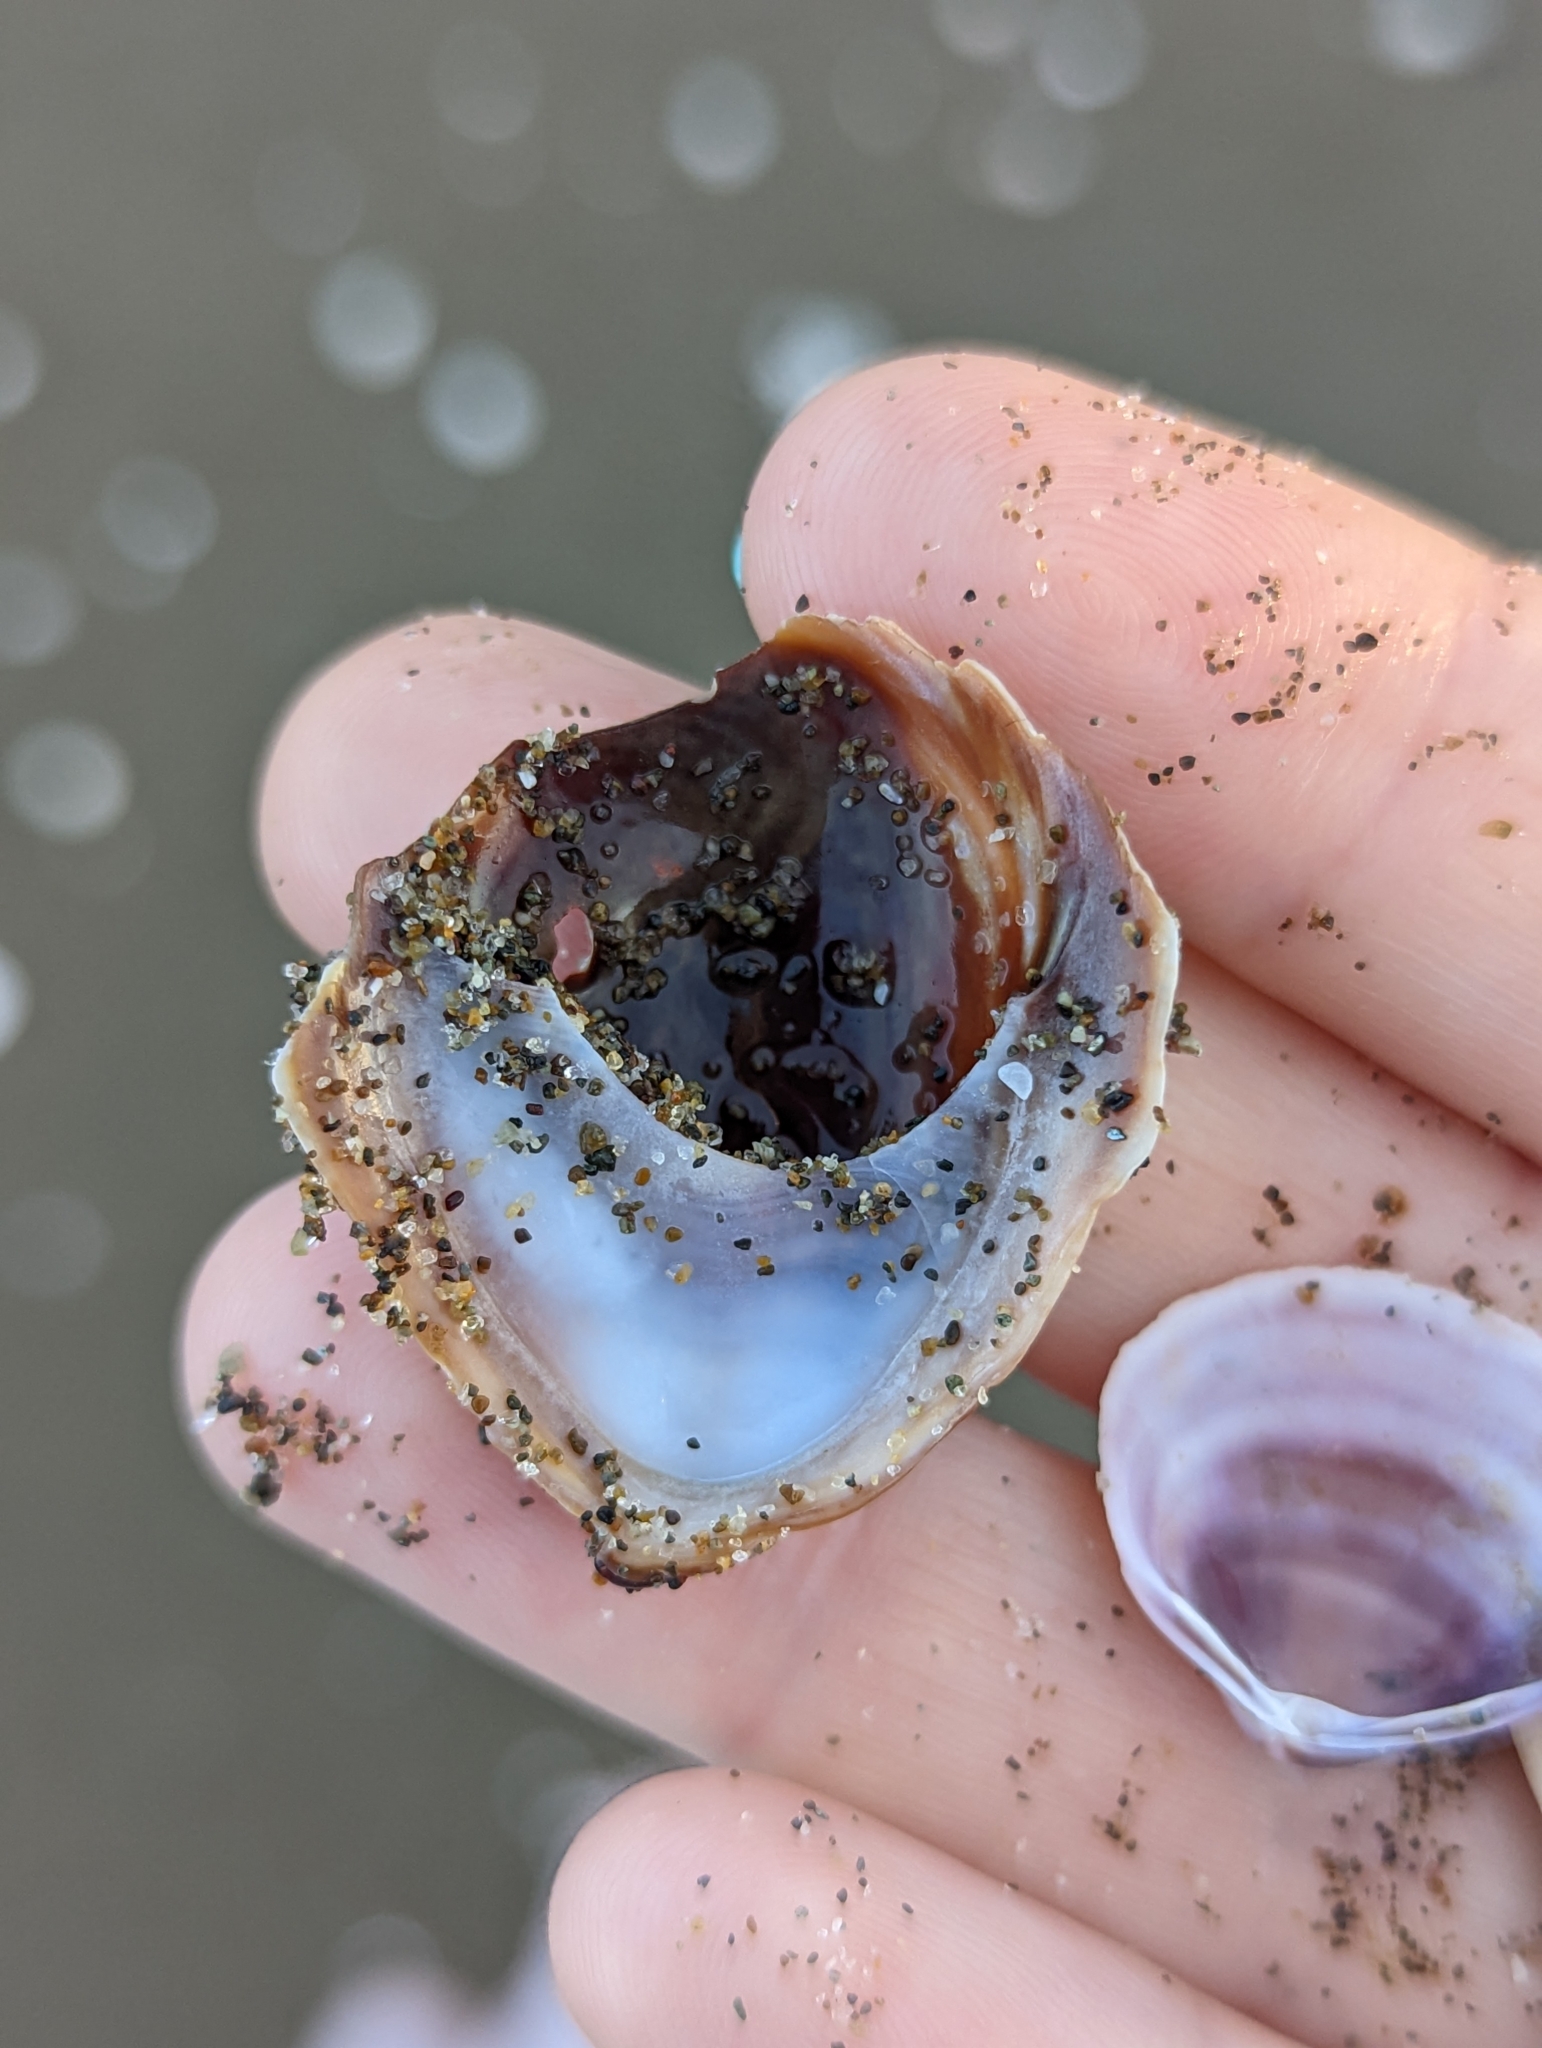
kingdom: Animalia
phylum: Mollusca
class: Gastropoda
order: Littorinimorpha
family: Calyptraeidae
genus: Crepidula
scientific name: Crepidula onyx
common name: Onyx slippersnail
